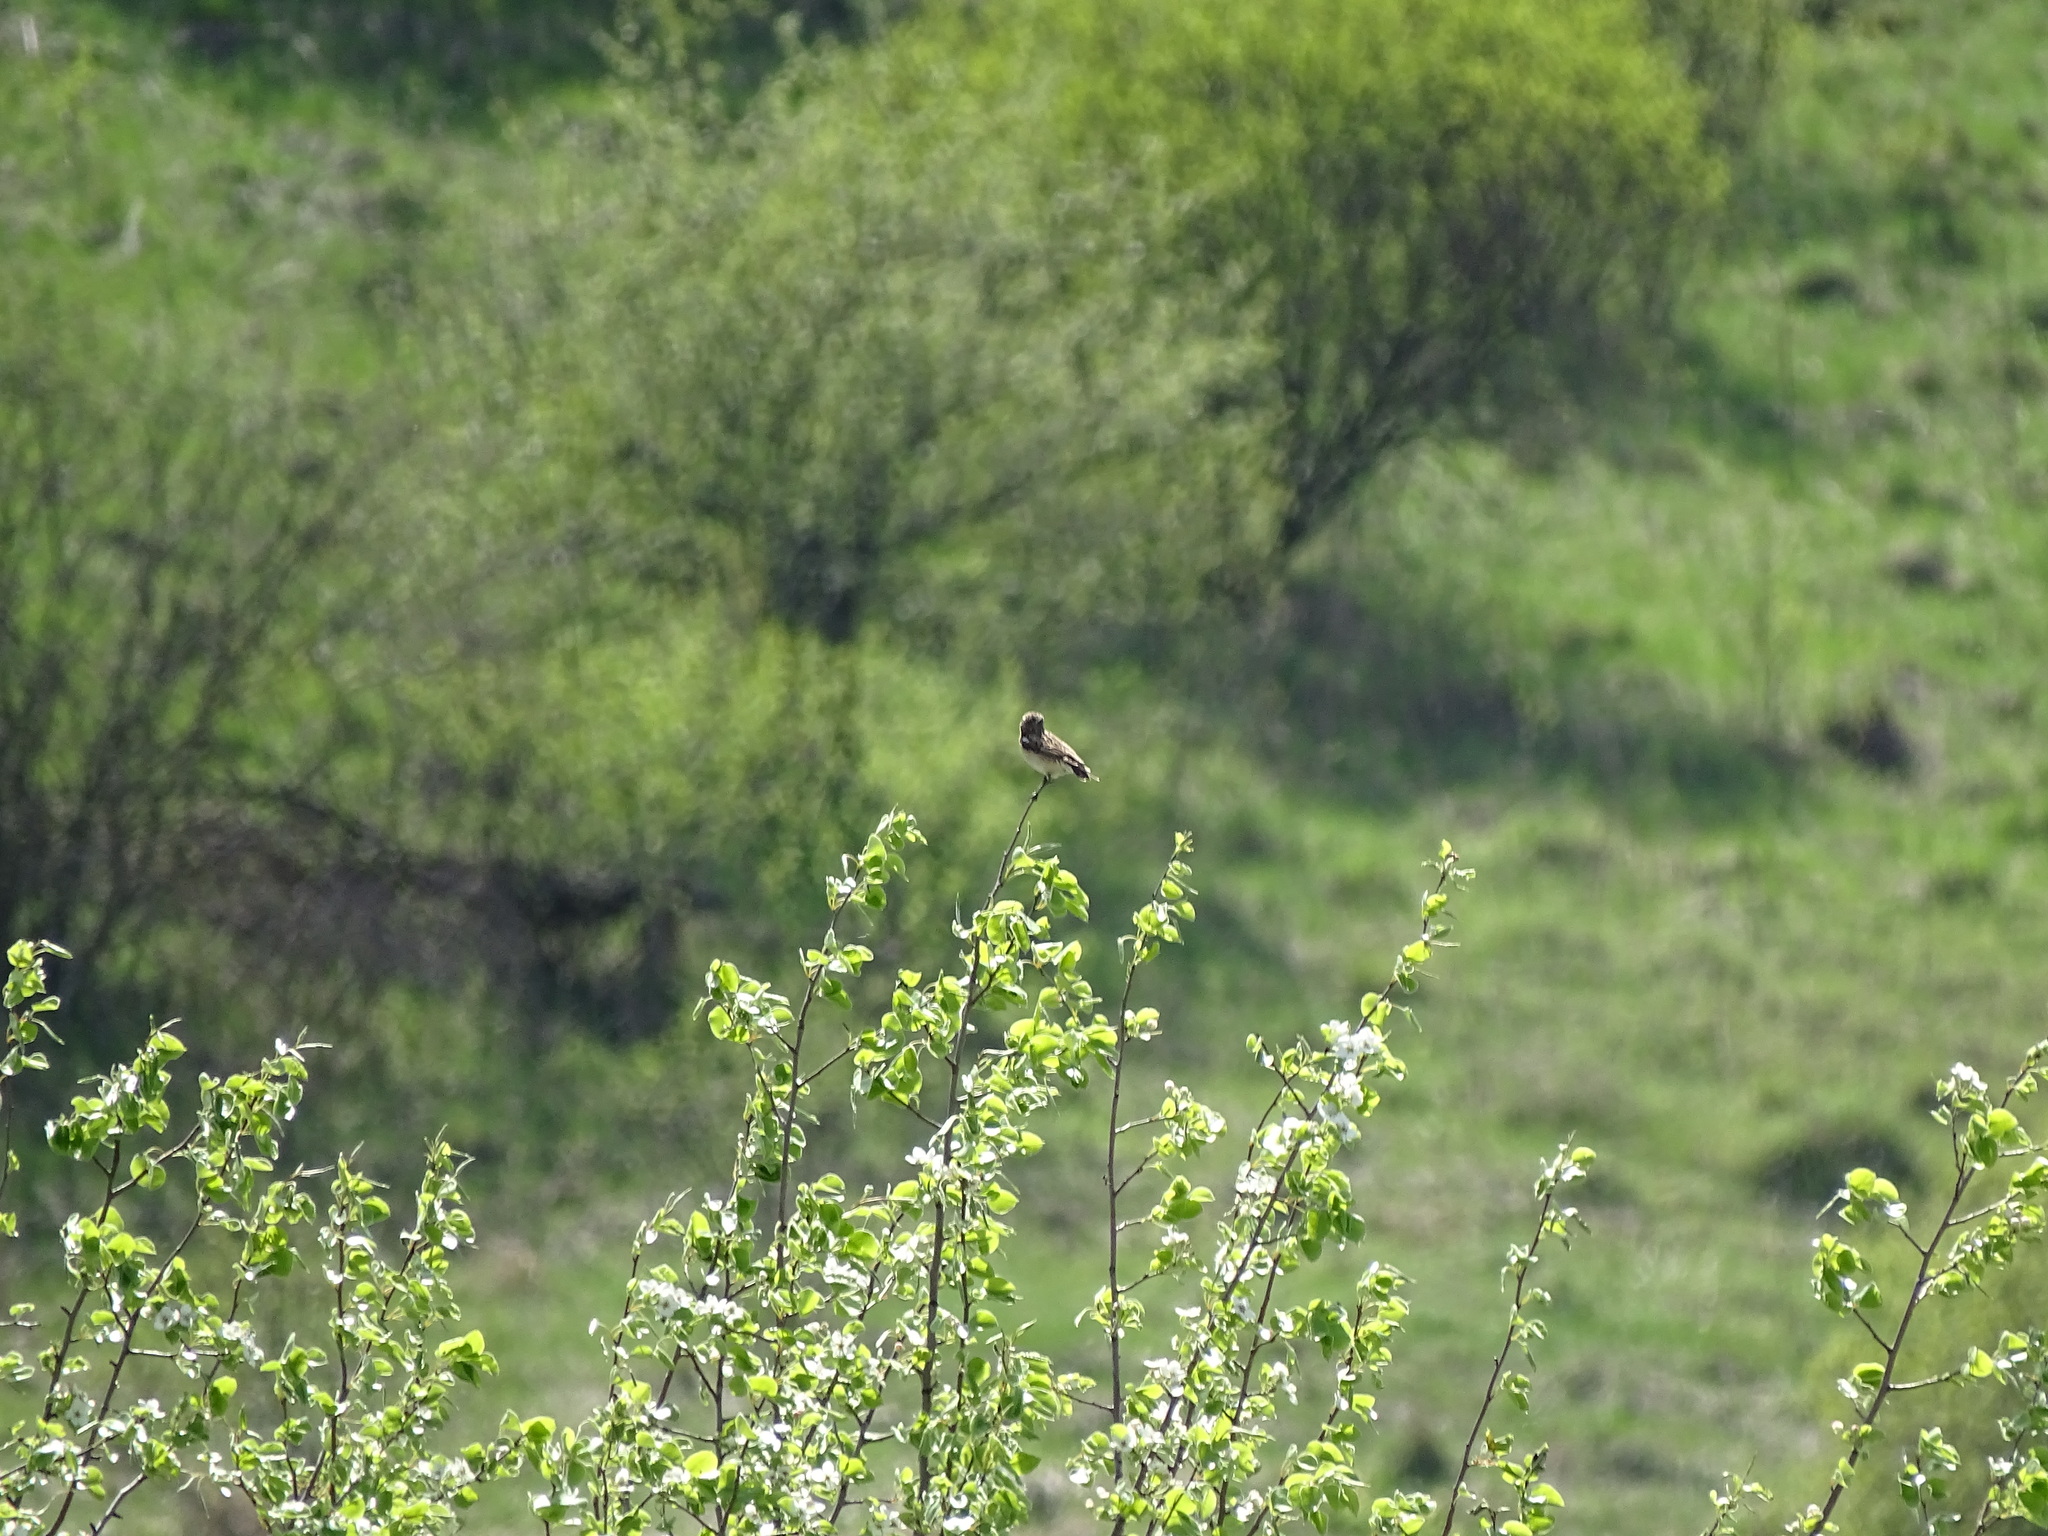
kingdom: Animalia
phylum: Chordata
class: Aves
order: Passeriformes
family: Muscicapidae
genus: Saxicola
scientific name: Saxicola rubetra
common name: Whinchat
